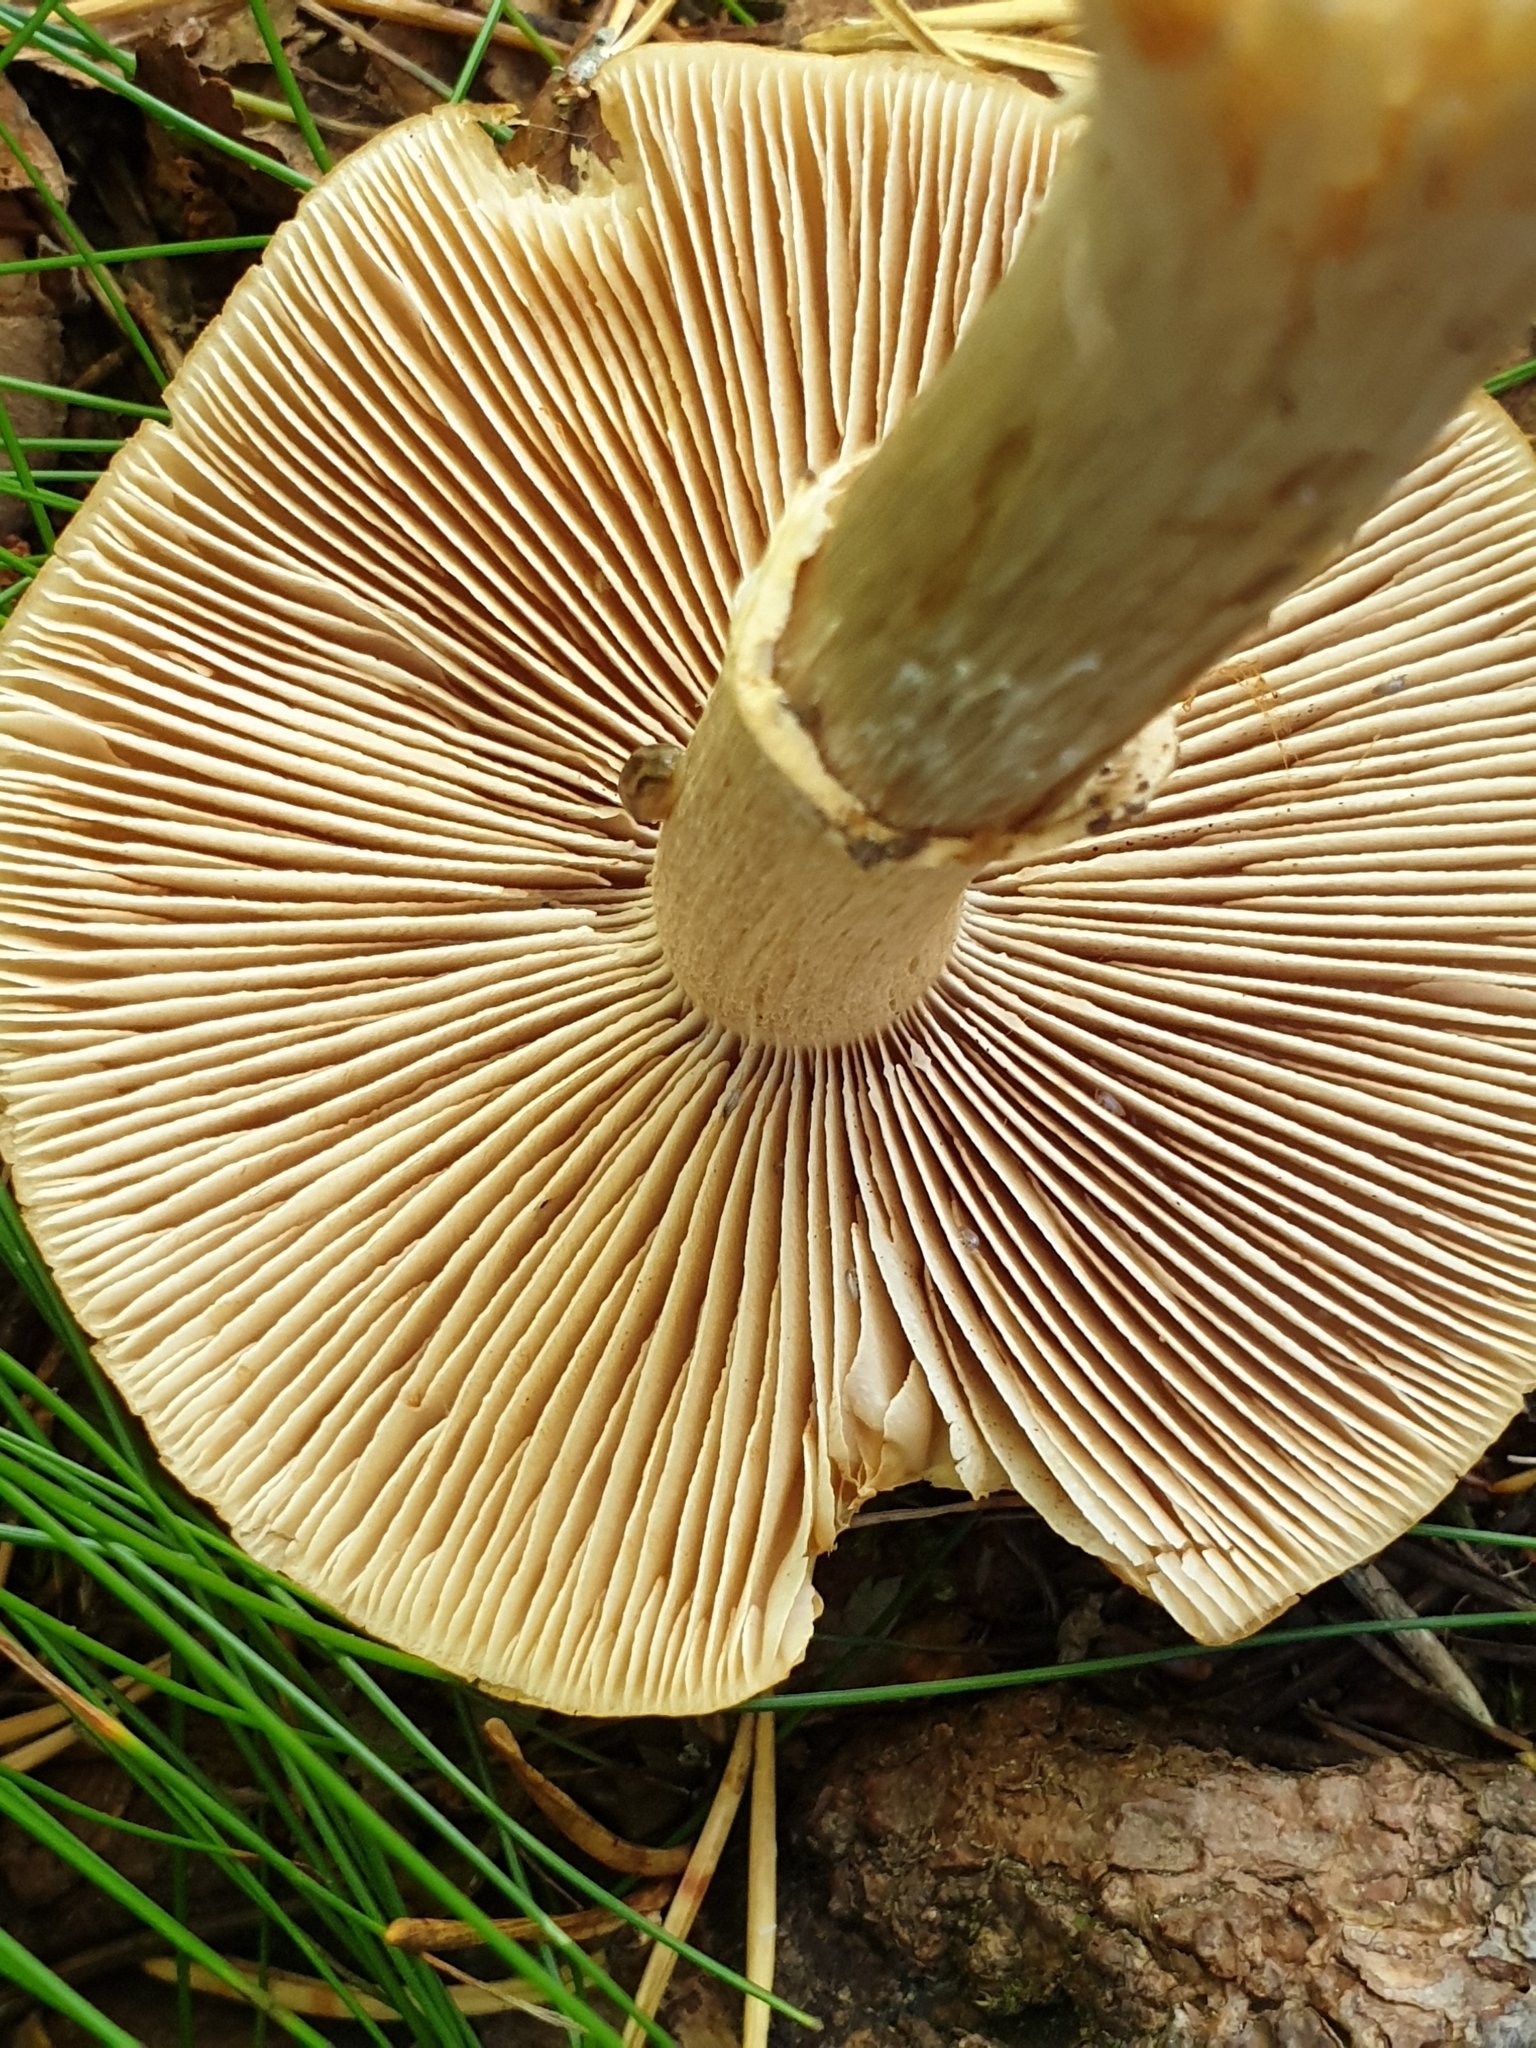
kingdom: Fungi
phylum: Basidiomycota
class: Agaricomycetes
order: Agaricales
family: Cortinariaceae
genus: Cortinarius
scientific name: Cortinarius caperatus
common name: The gypsy
